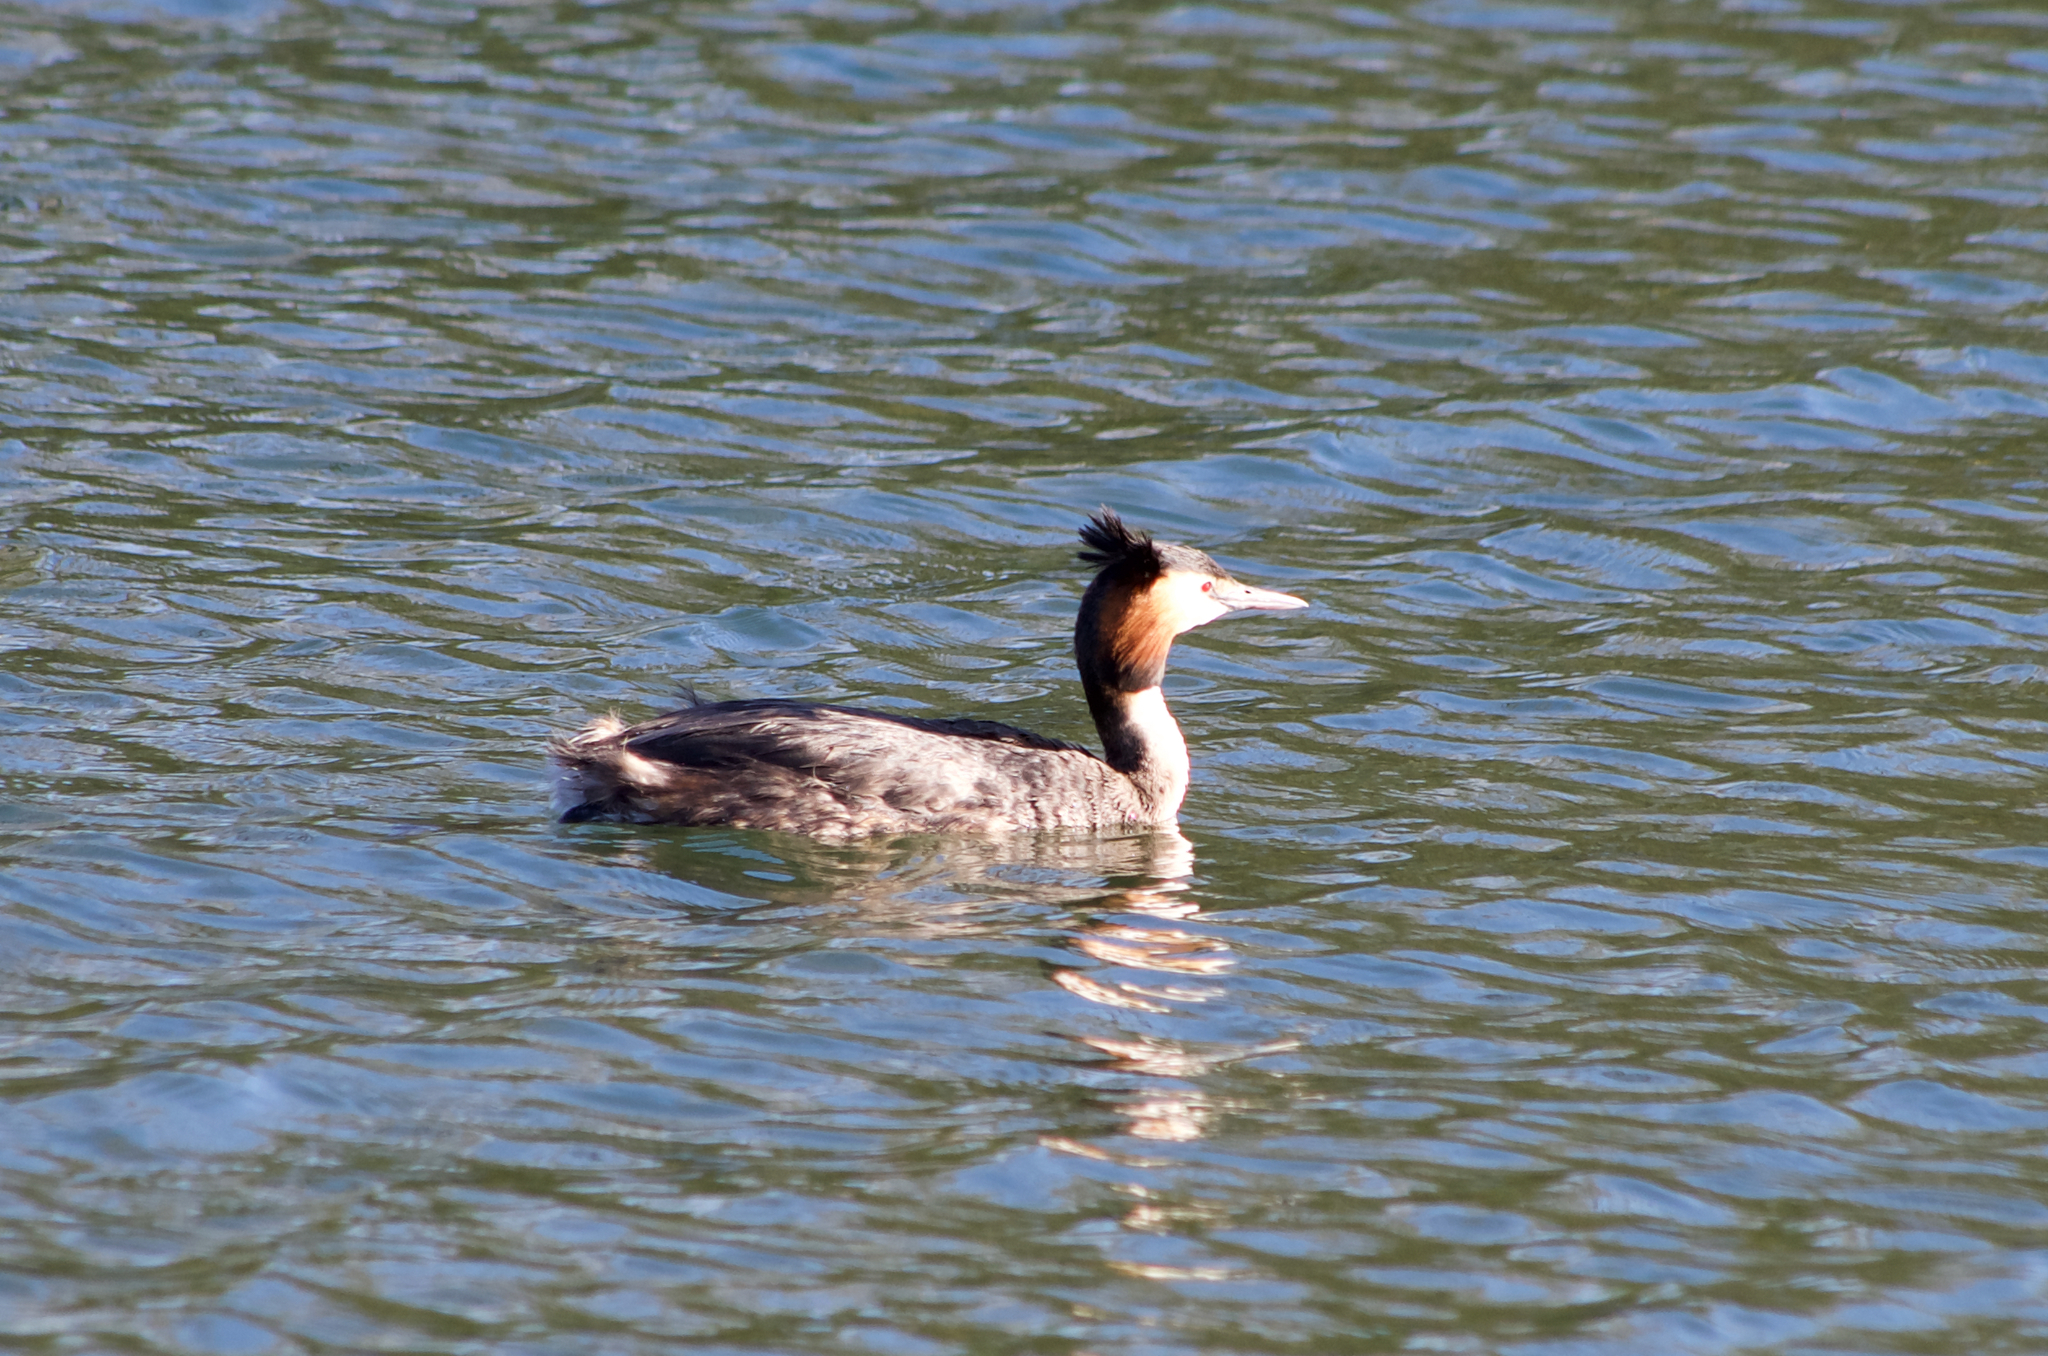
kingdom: Animalia
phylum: Chordata
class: Aves
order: Podicipediformes
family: Podicipedidae
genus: Podiceps
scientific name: Podiceps cristatus
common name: Great crested grebe
